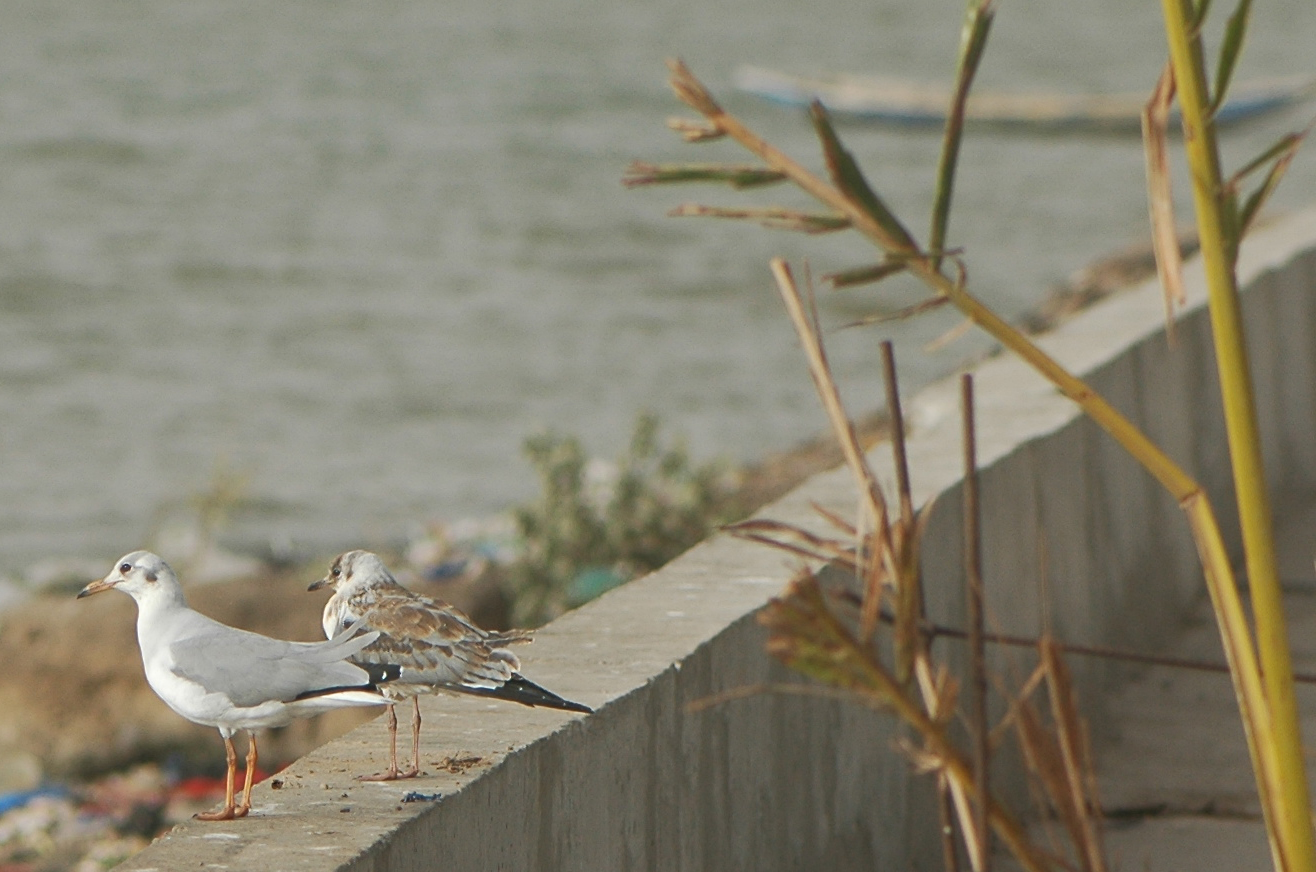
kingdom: Animalia
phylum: Chordata
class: Aves
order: Charadriiformes
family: Laridae
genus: Chroicocephalus
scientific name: Chroicocephalus cirrocephalus
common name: Grey-headed gull
